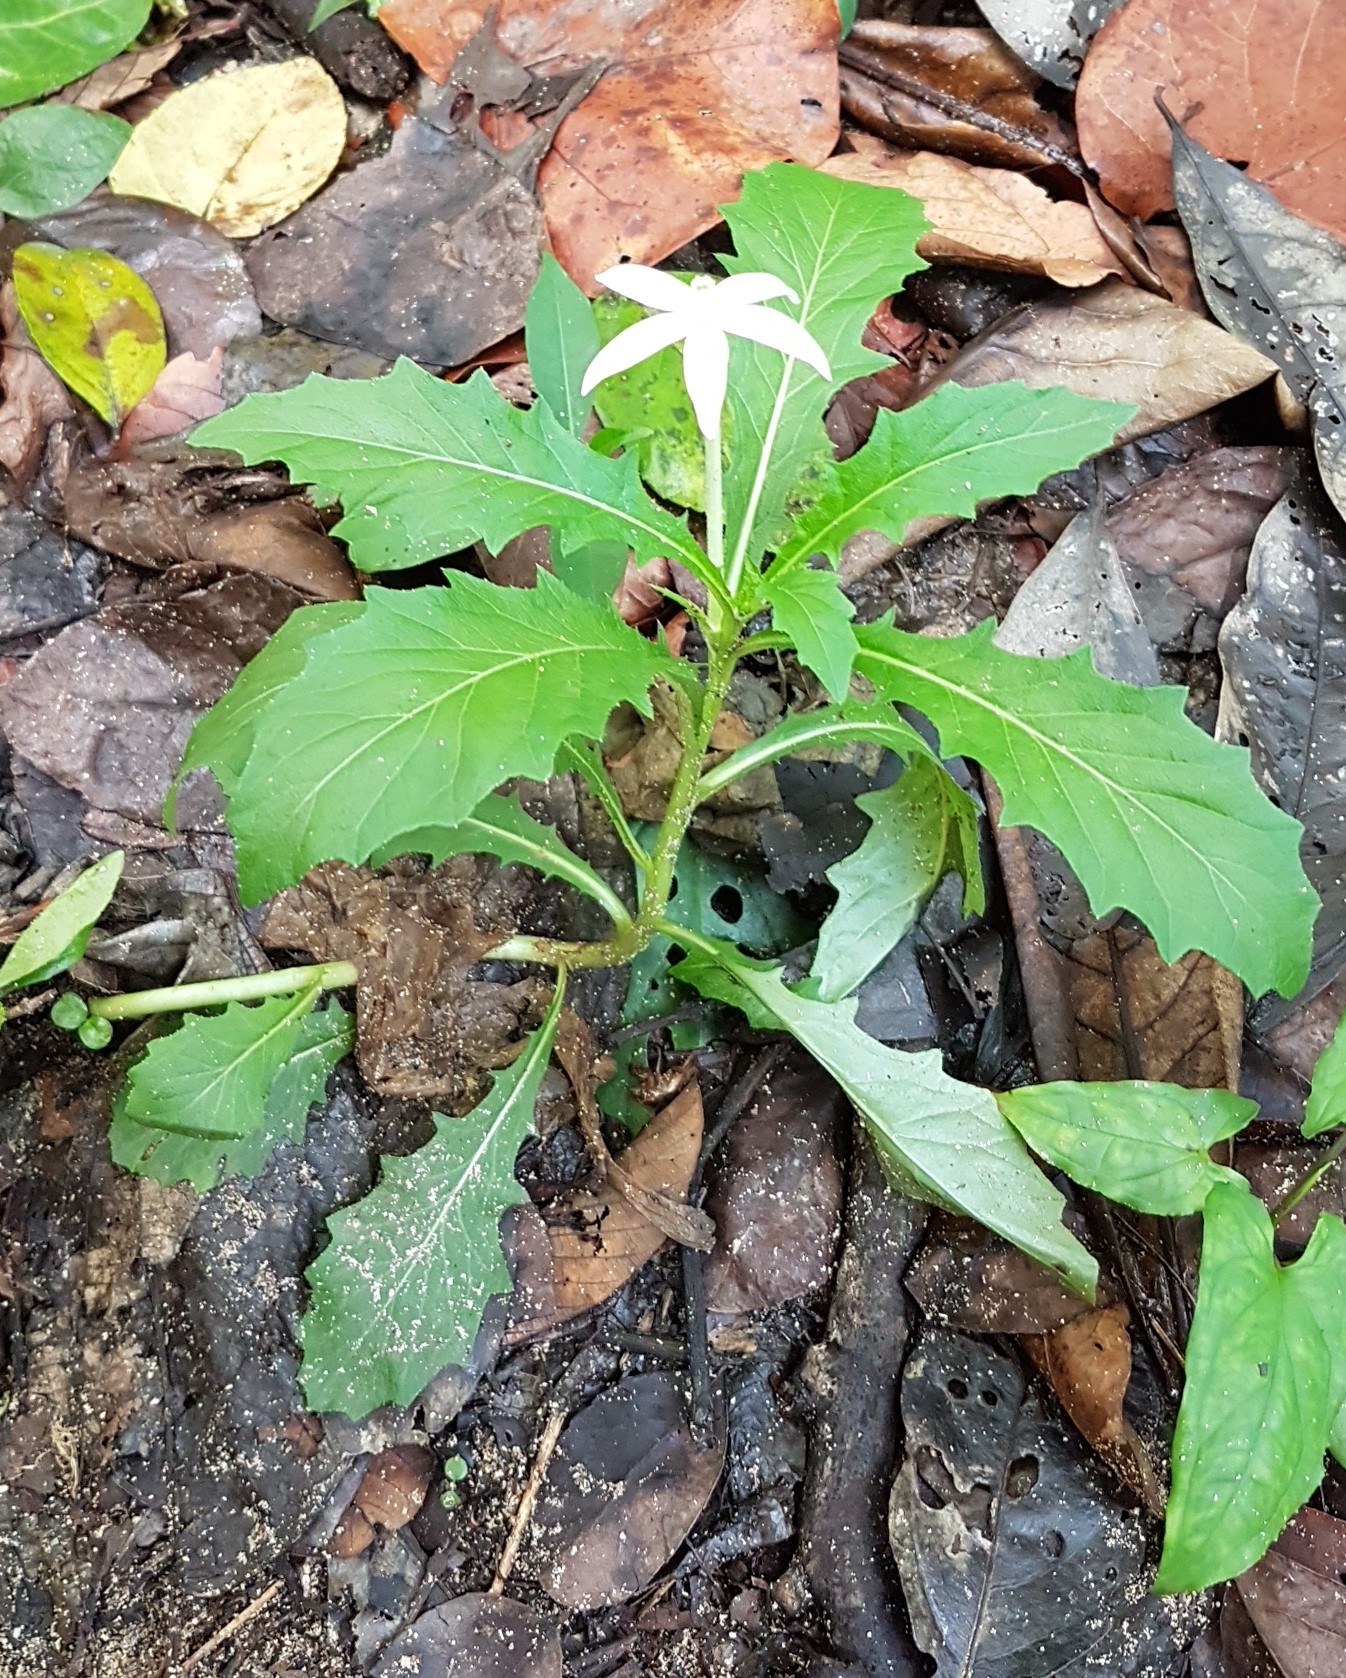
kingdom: Plantae
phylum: Tracheophyta
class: Magnoliopsida
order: Asterales
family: Campanulaceae
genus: Hippobroma
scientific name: Hippobroma longiflora
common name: Madamfate
